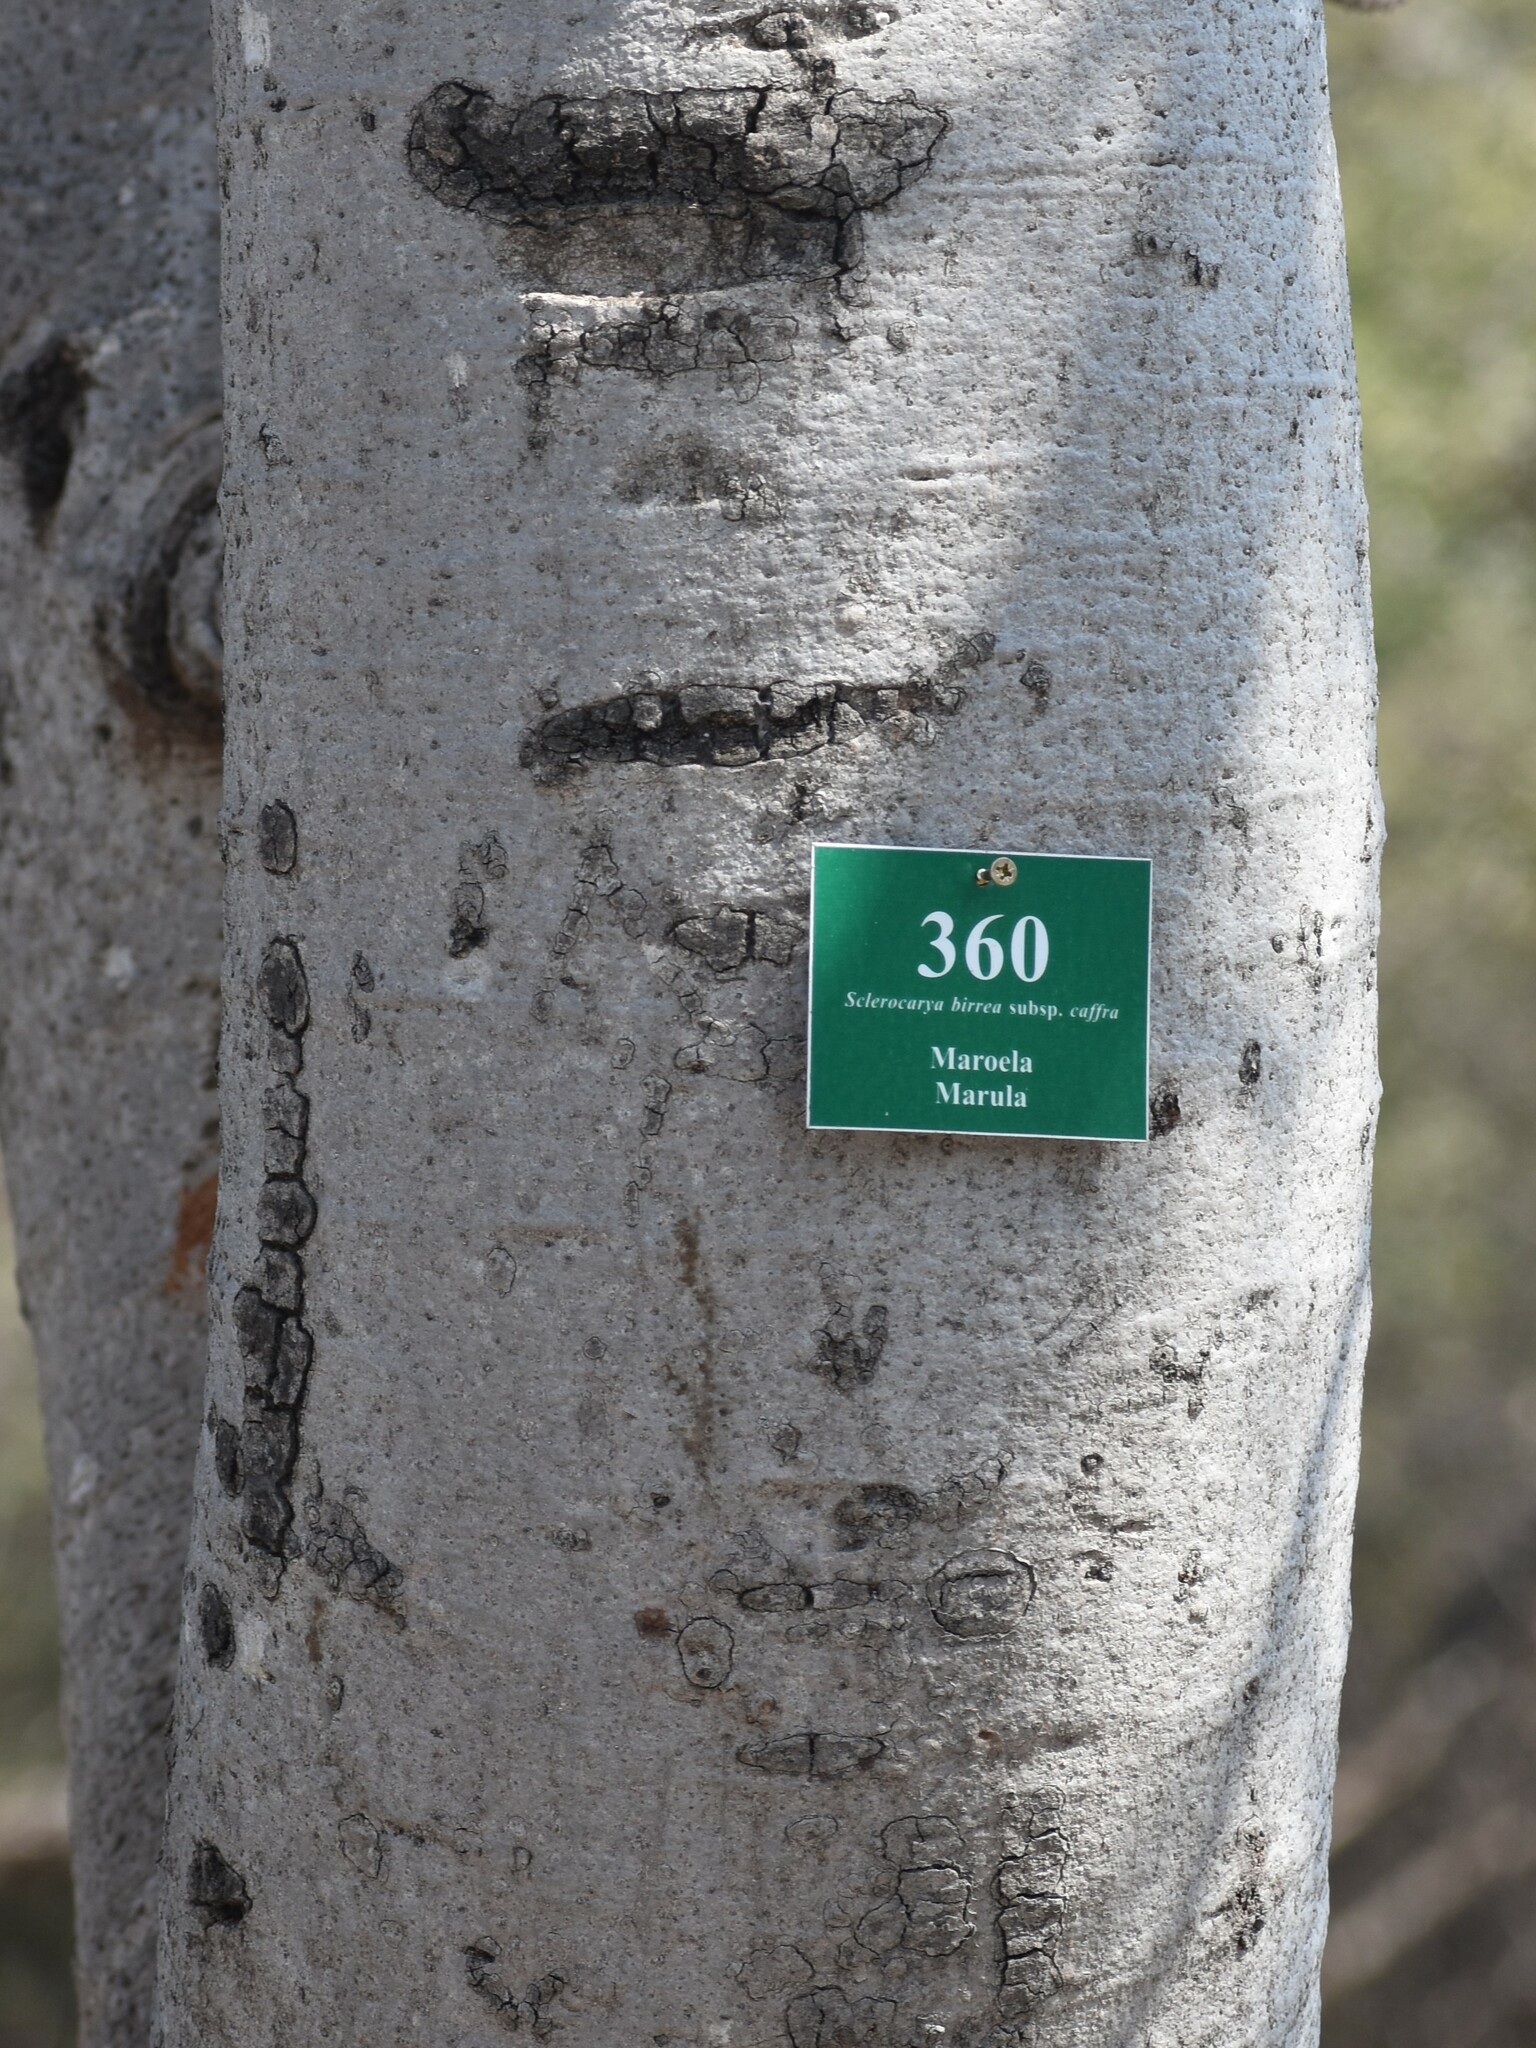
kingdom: Plantae
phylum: Tracheophyta
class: Magnoliopsida
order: Sapindales
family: Anacardiaceae
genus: Sclerocarya
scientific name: Sclerocarya birrea
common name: Marula
